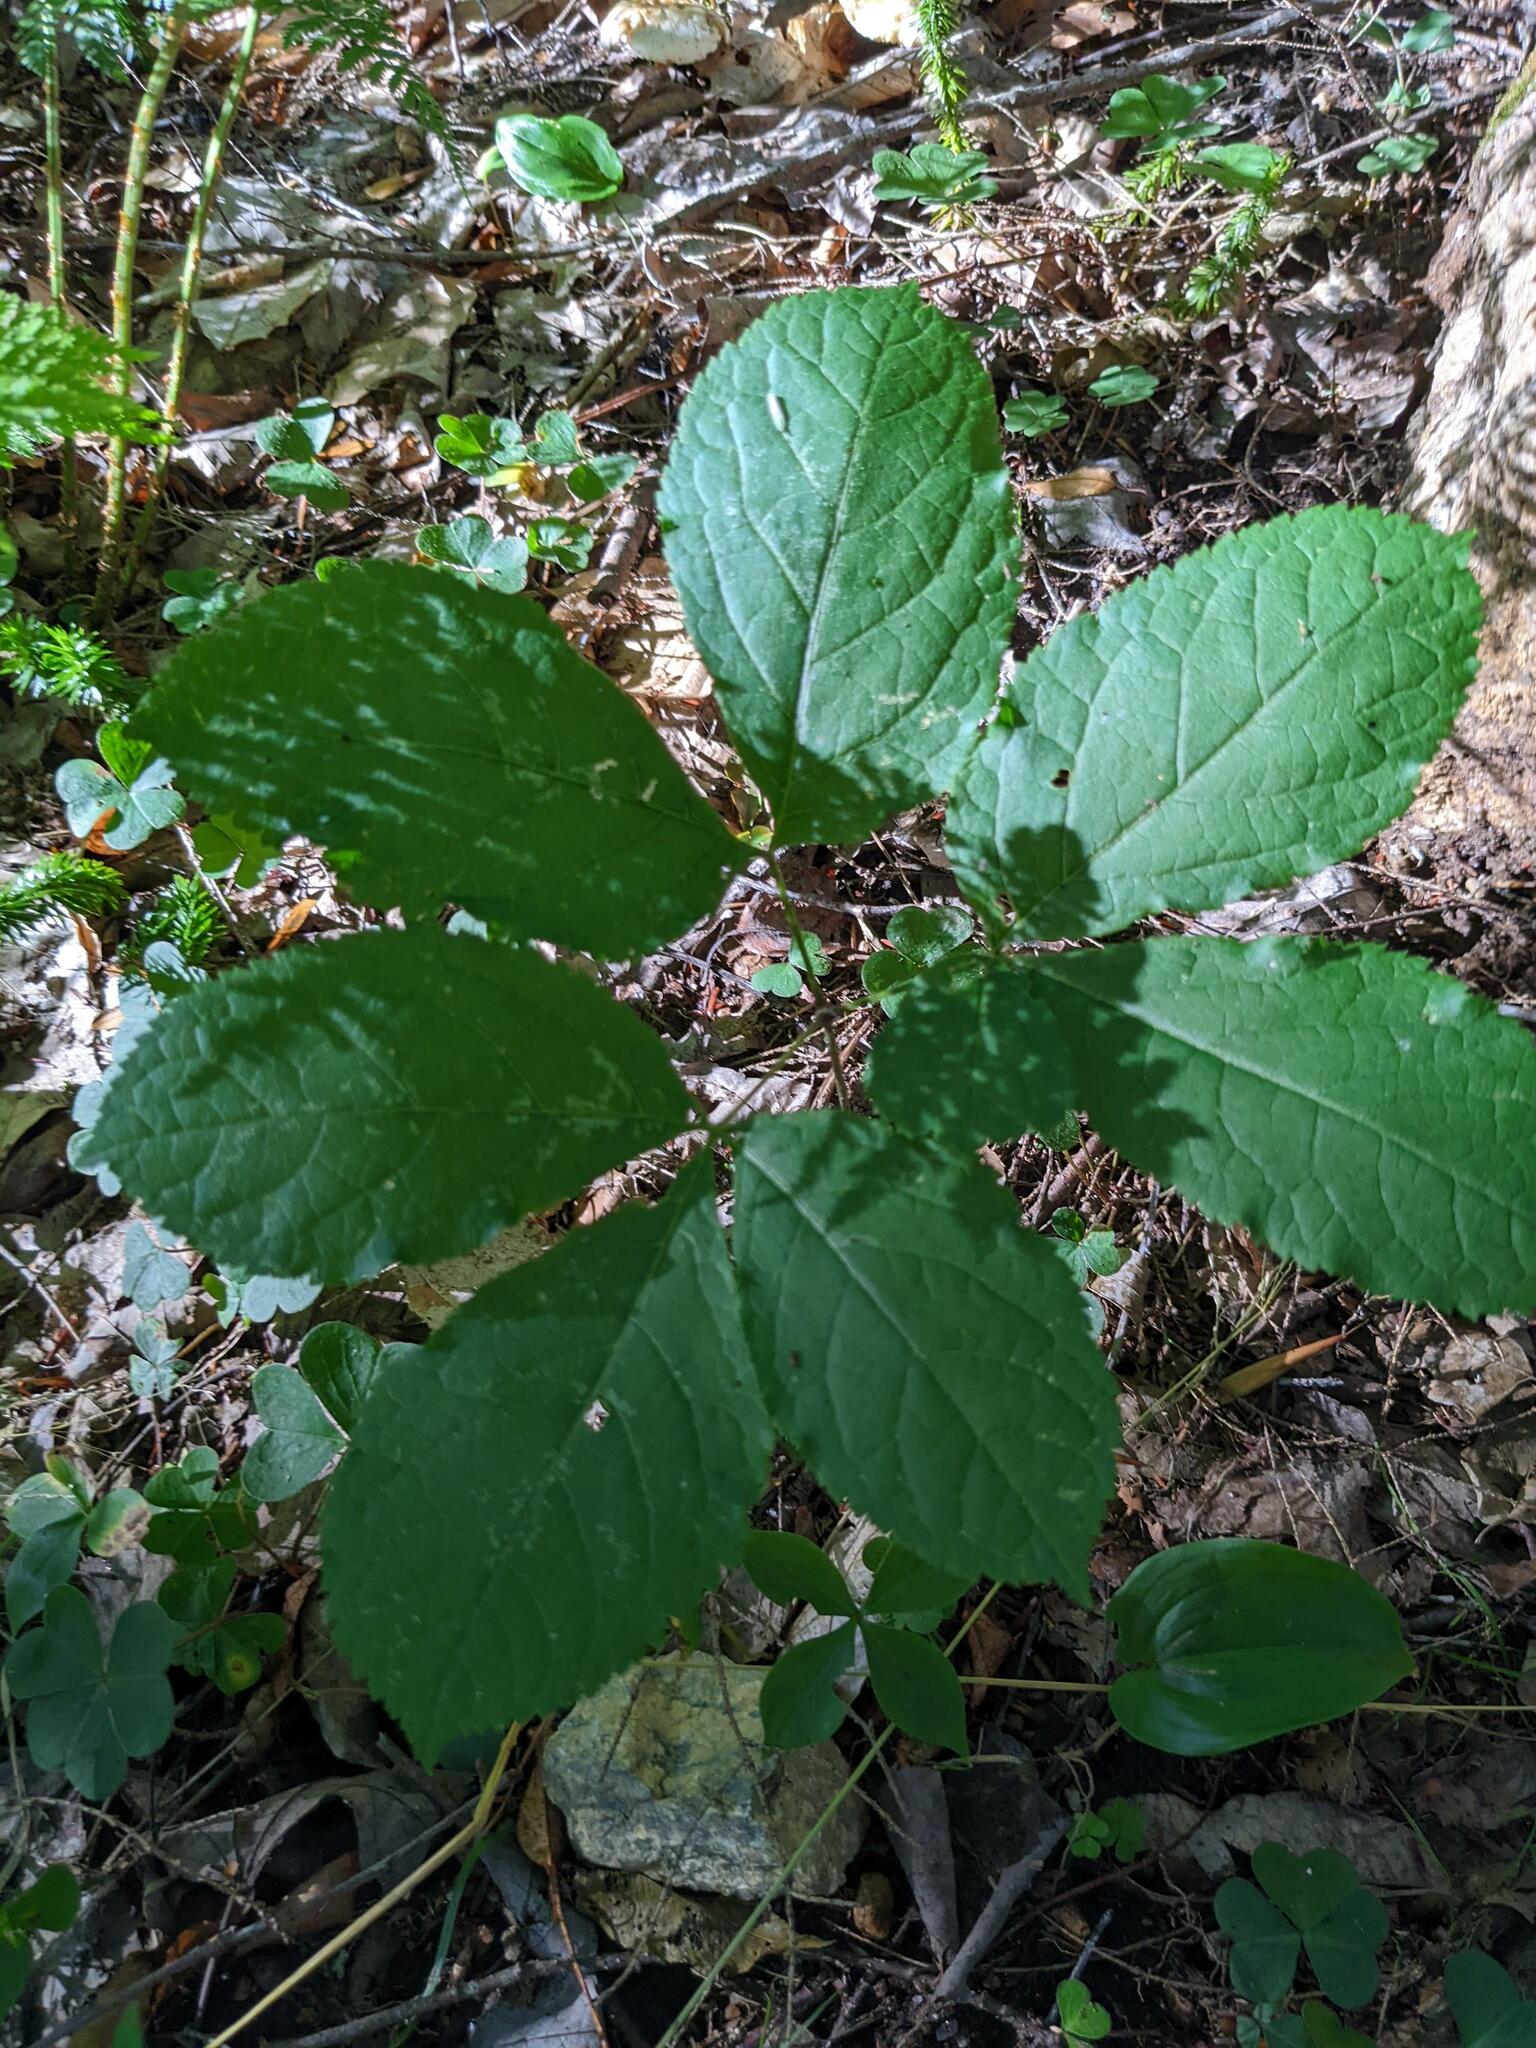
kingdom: Plantae
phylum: Tracheophyta
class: Magnoliopsida
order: Apiales
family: Araliaceae
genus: Aralia
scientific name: Aralia nudicaulis
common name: Wild sarsaparilla
